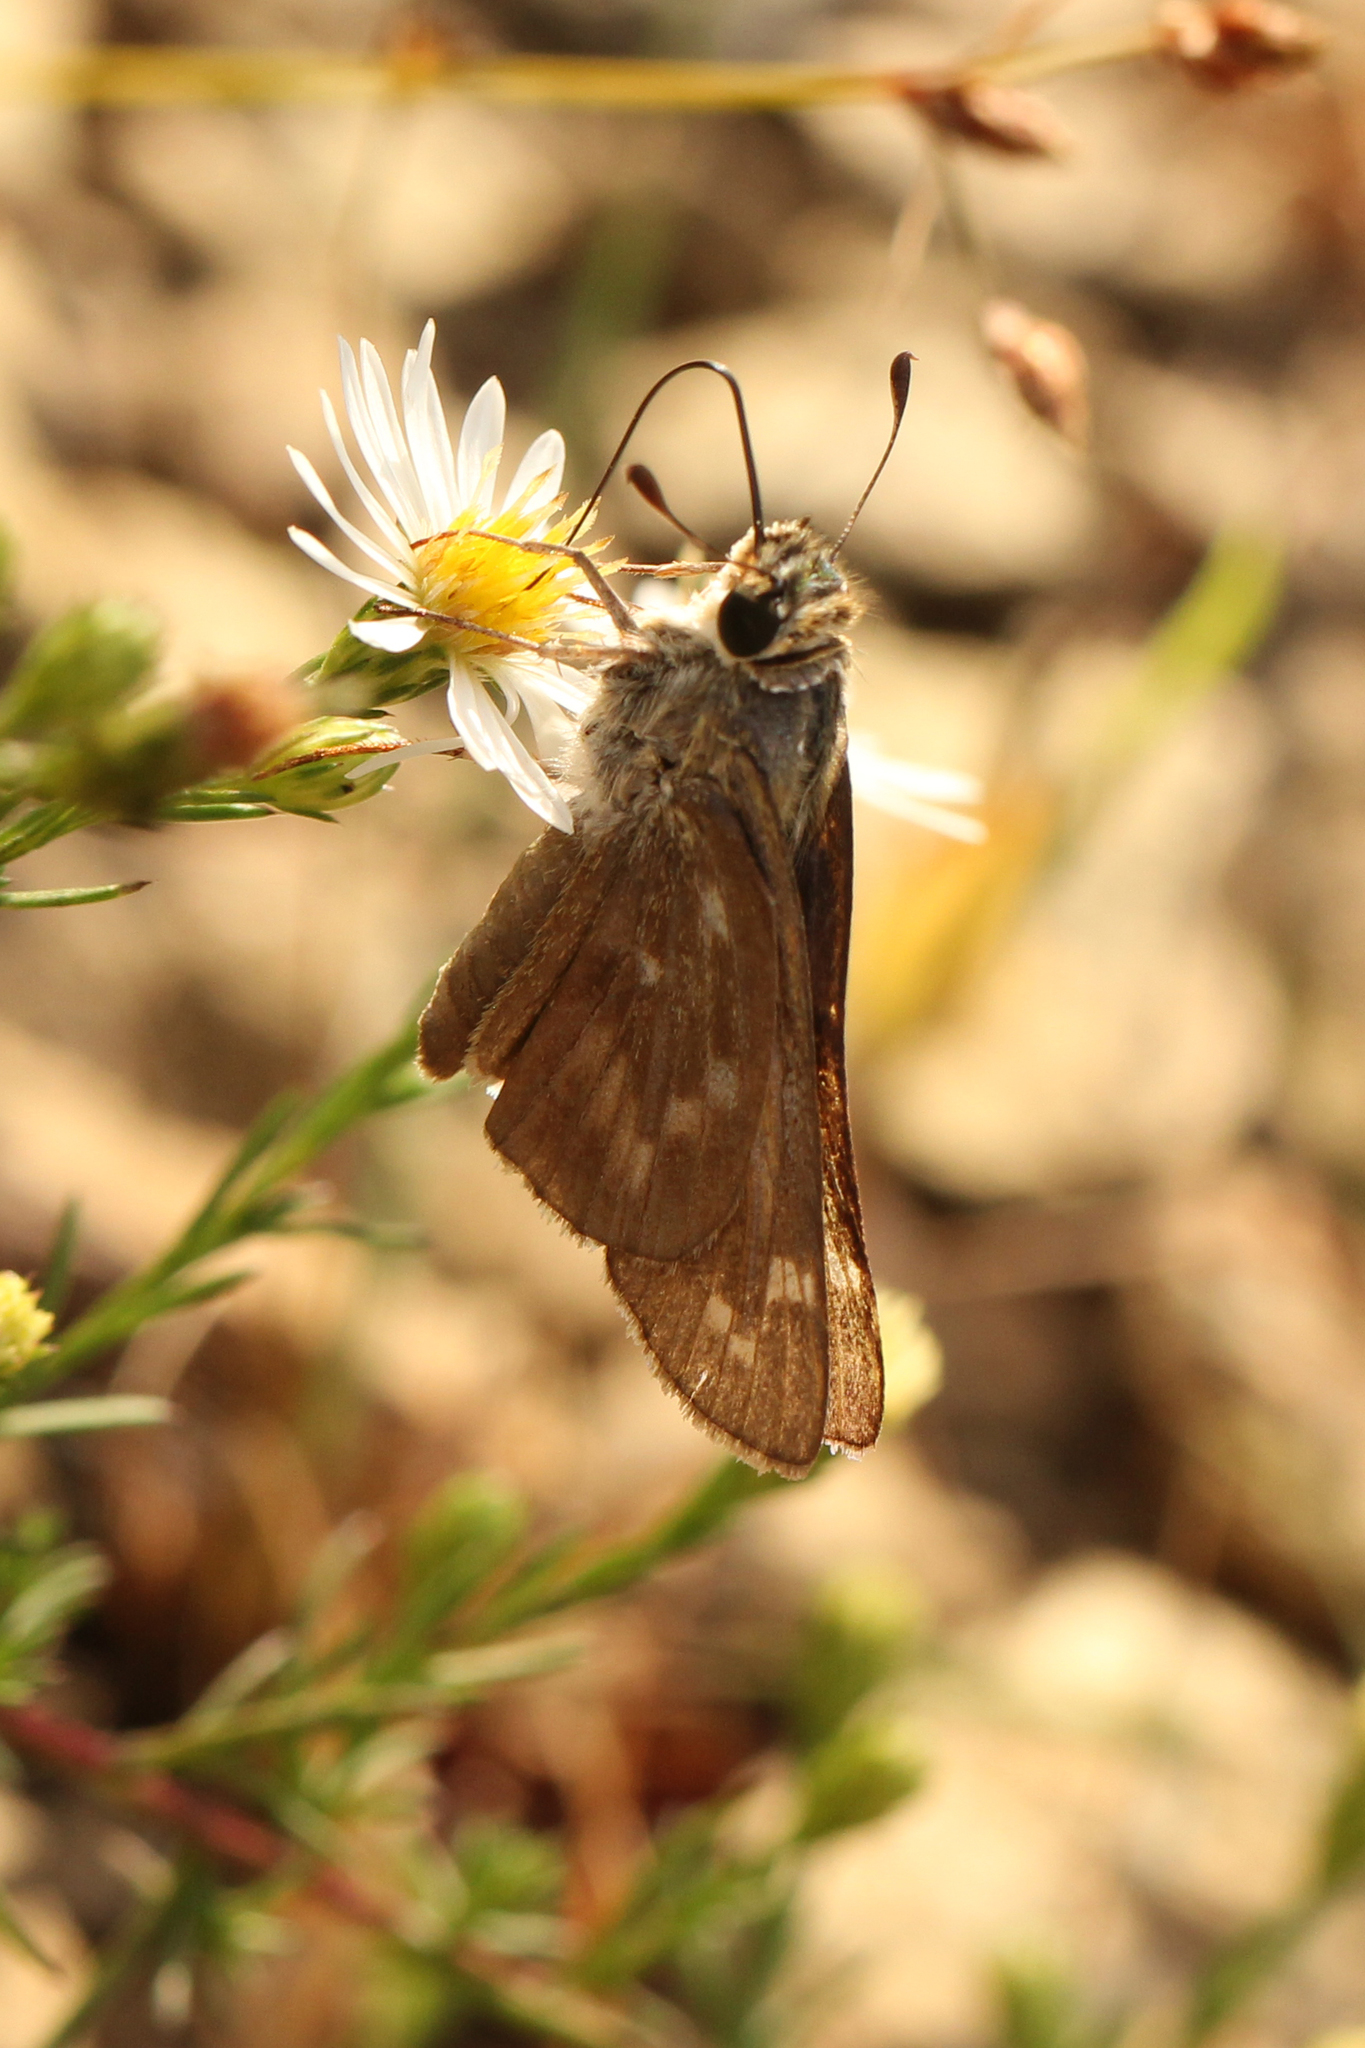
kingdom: Animalia
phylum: Arthropoda
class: Insecta
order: Lepidoptera
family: Hesperiidae
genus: Atalopedes
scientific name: Atalopedes
